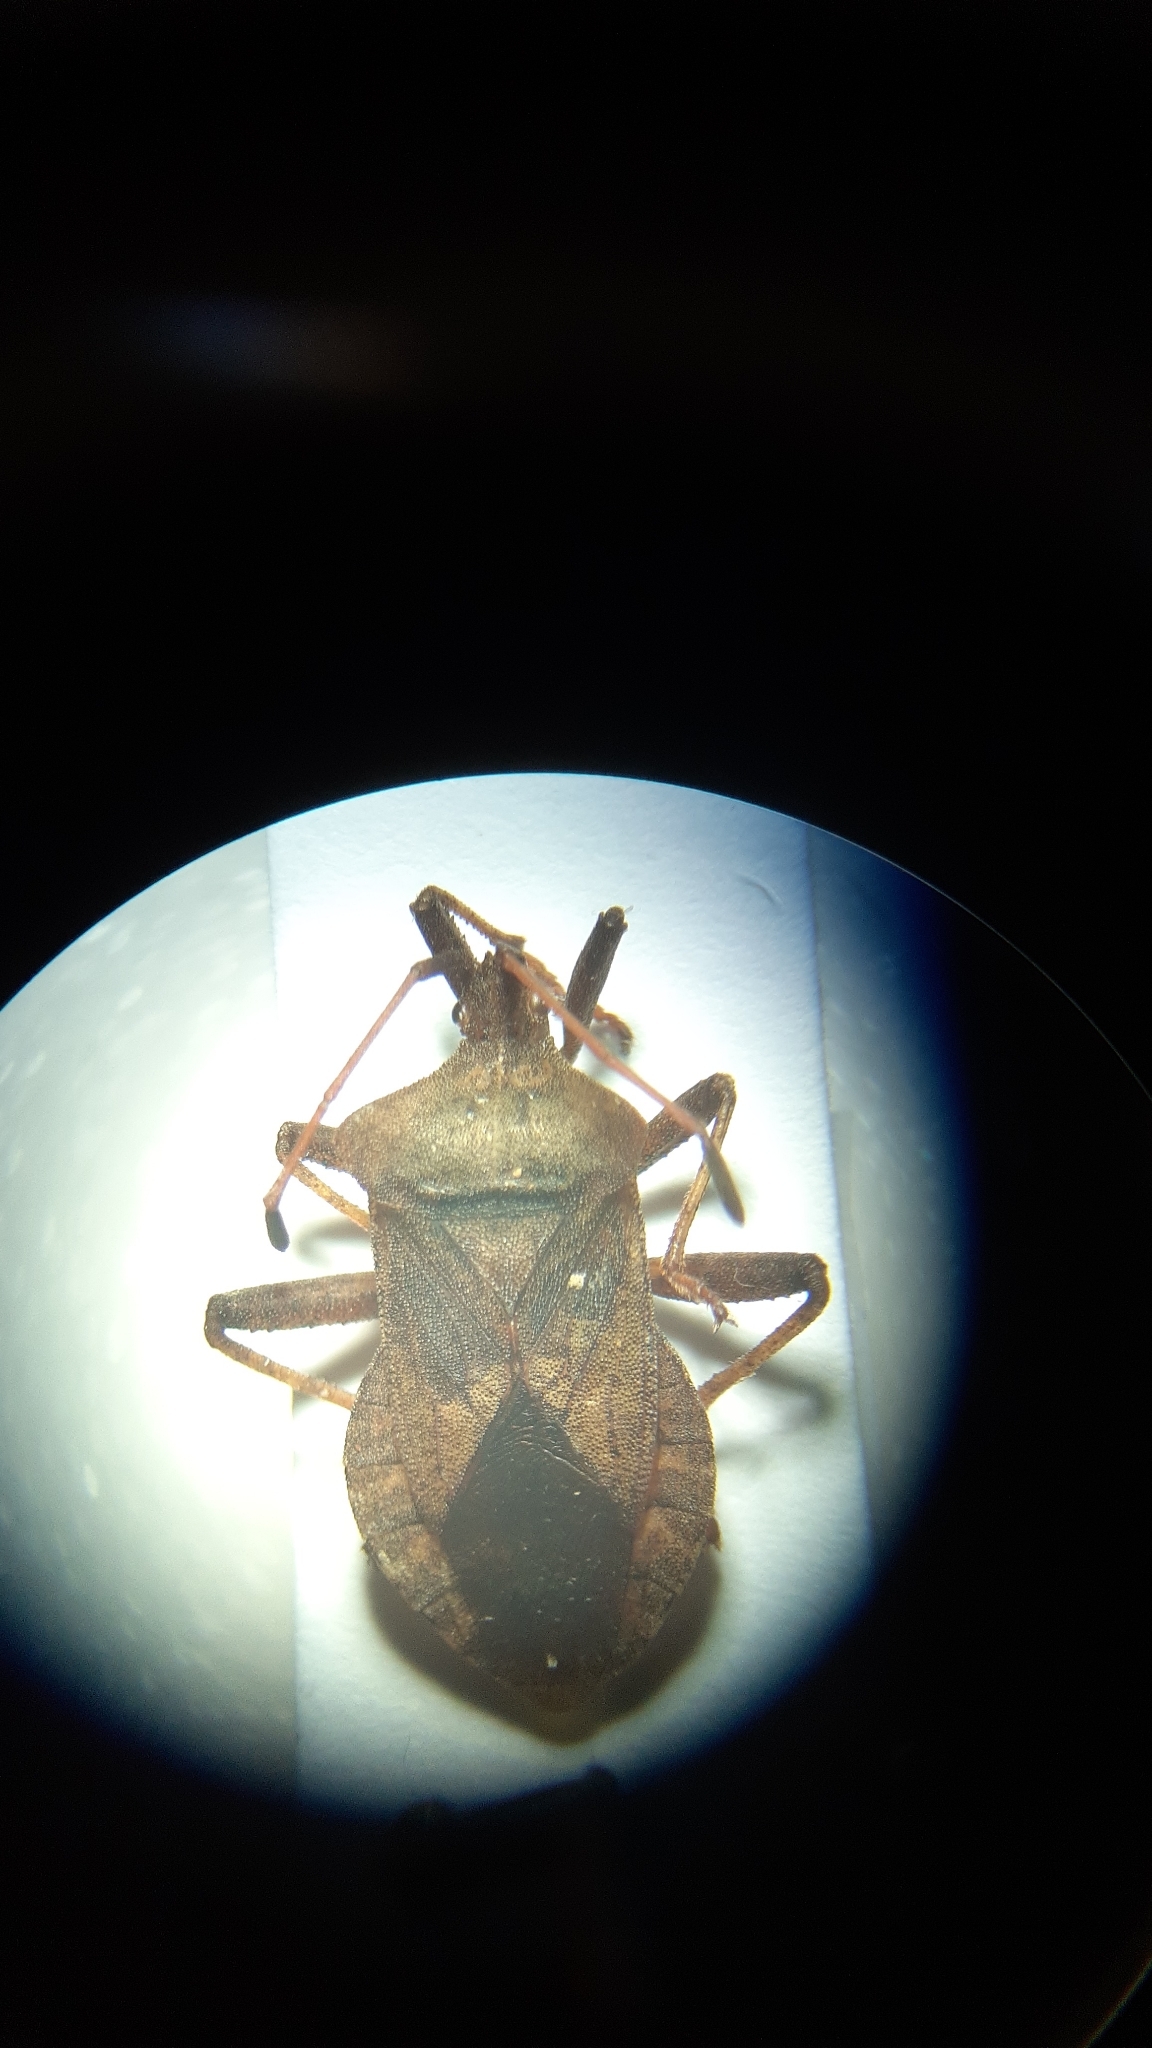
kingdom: Animalia
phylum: Arthropoda
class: Insecta
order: Hemiptera
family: Coreidae
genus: Coreus
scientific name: Coreus marginatus
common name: Dock bug
